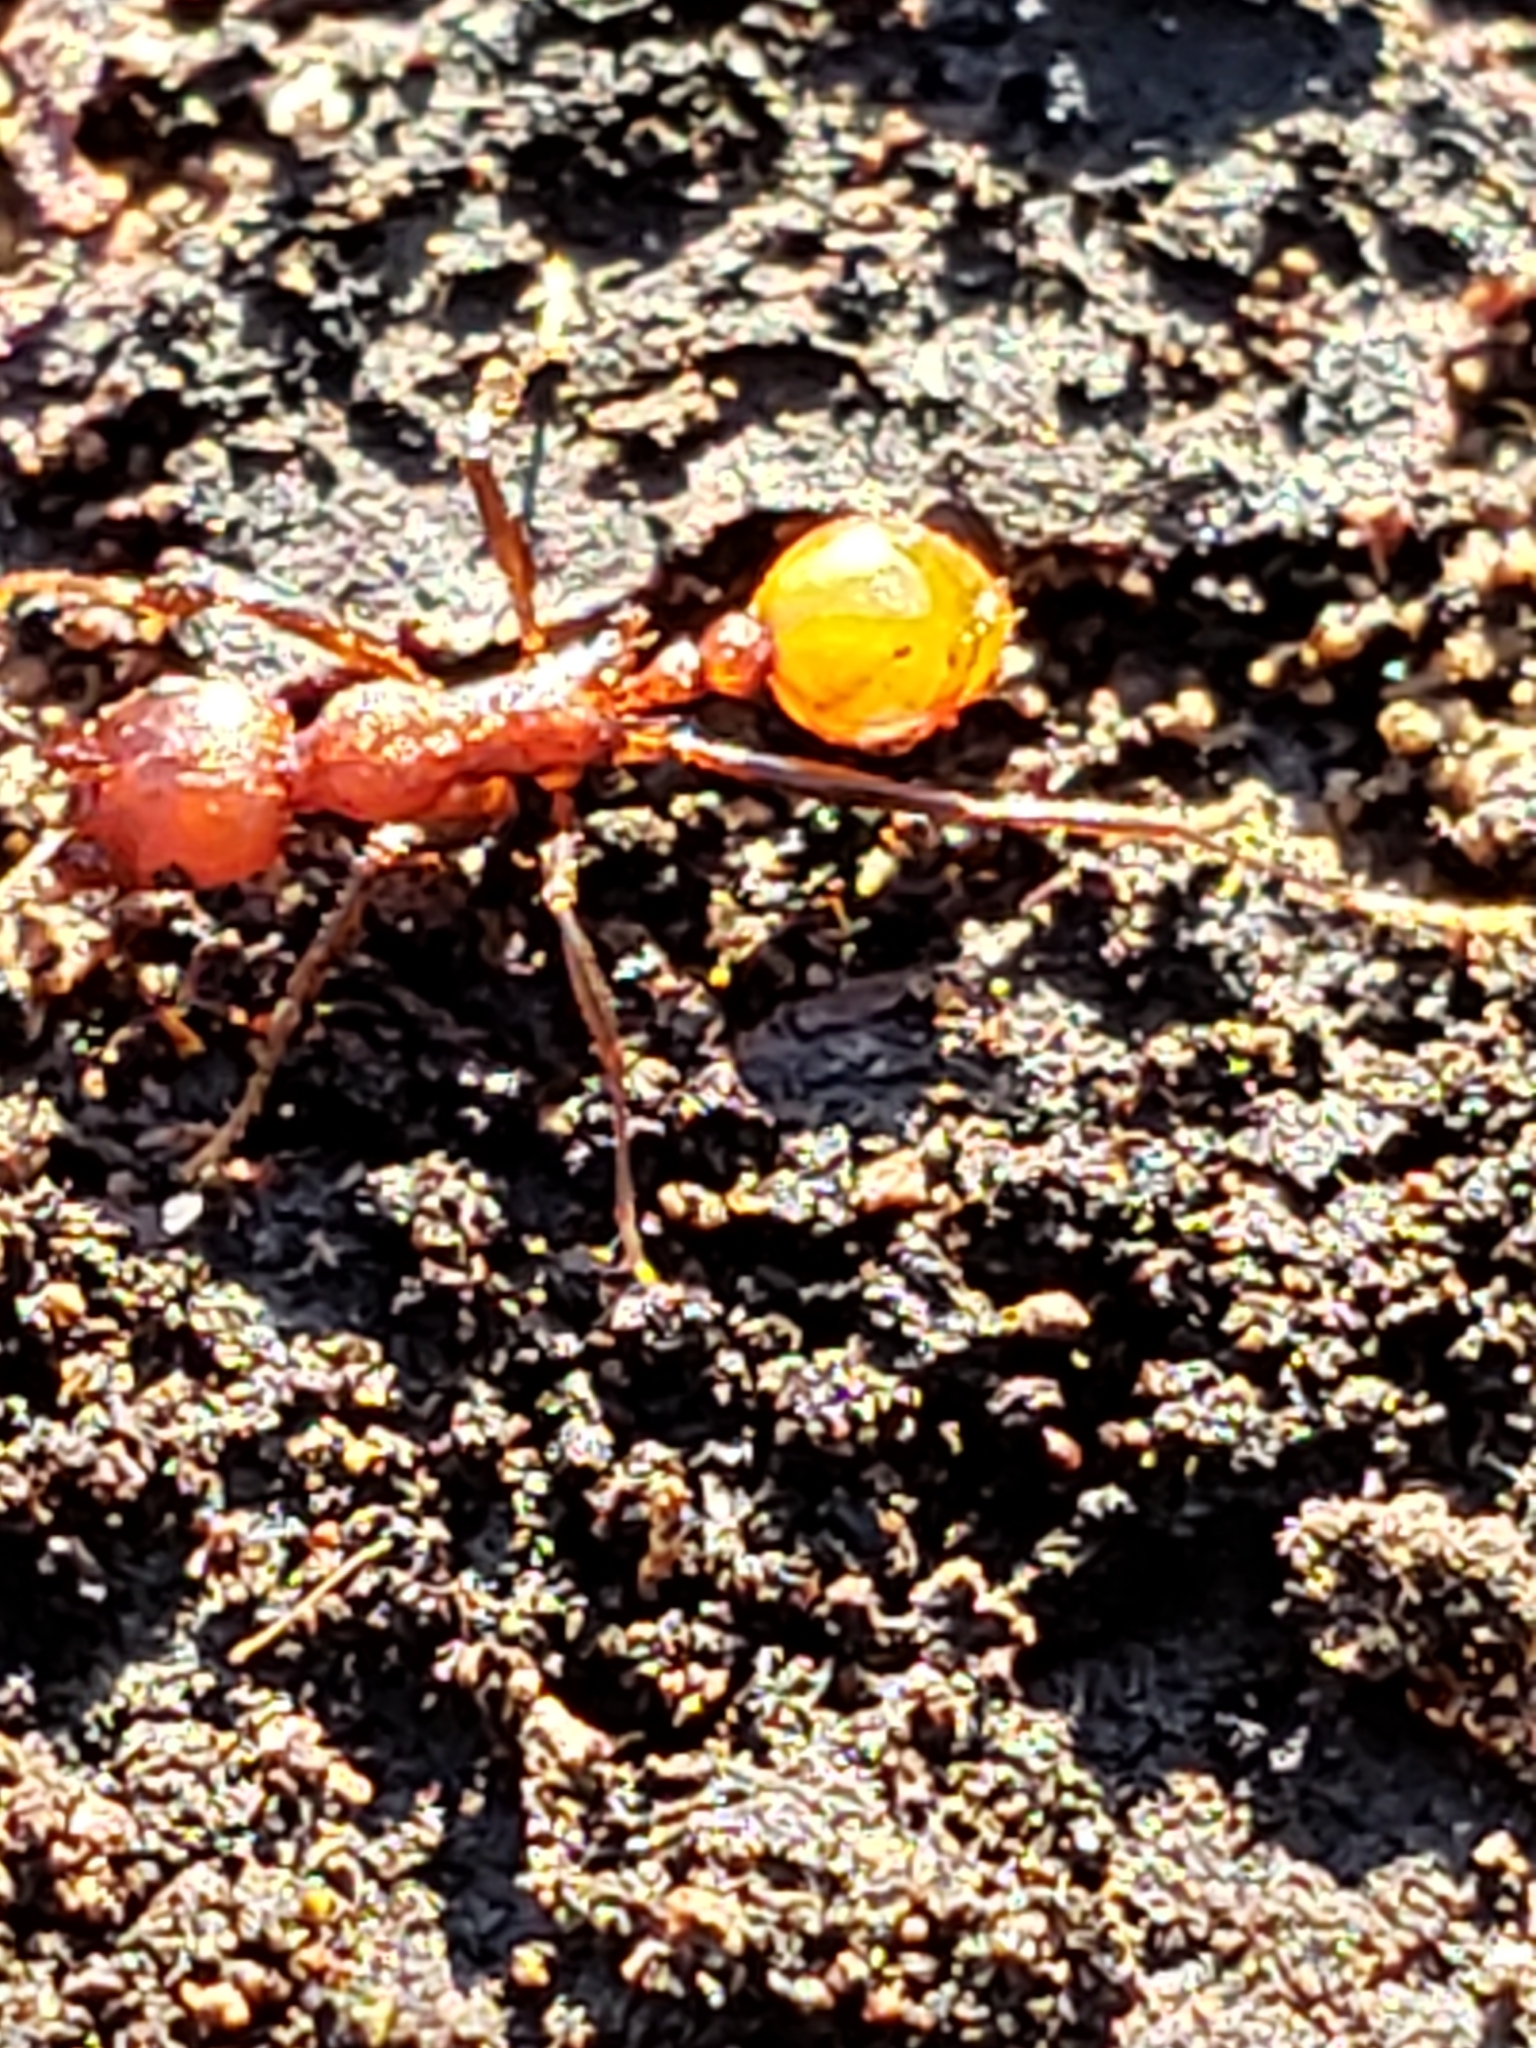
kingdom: Animalia
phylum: Arthropoda
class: Insecta
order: Hymenoptera
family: Formicidae
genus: Aphaenogaster
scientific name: Aphaenogaster tennesseensis
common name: Tennessee thread-waisted ant
